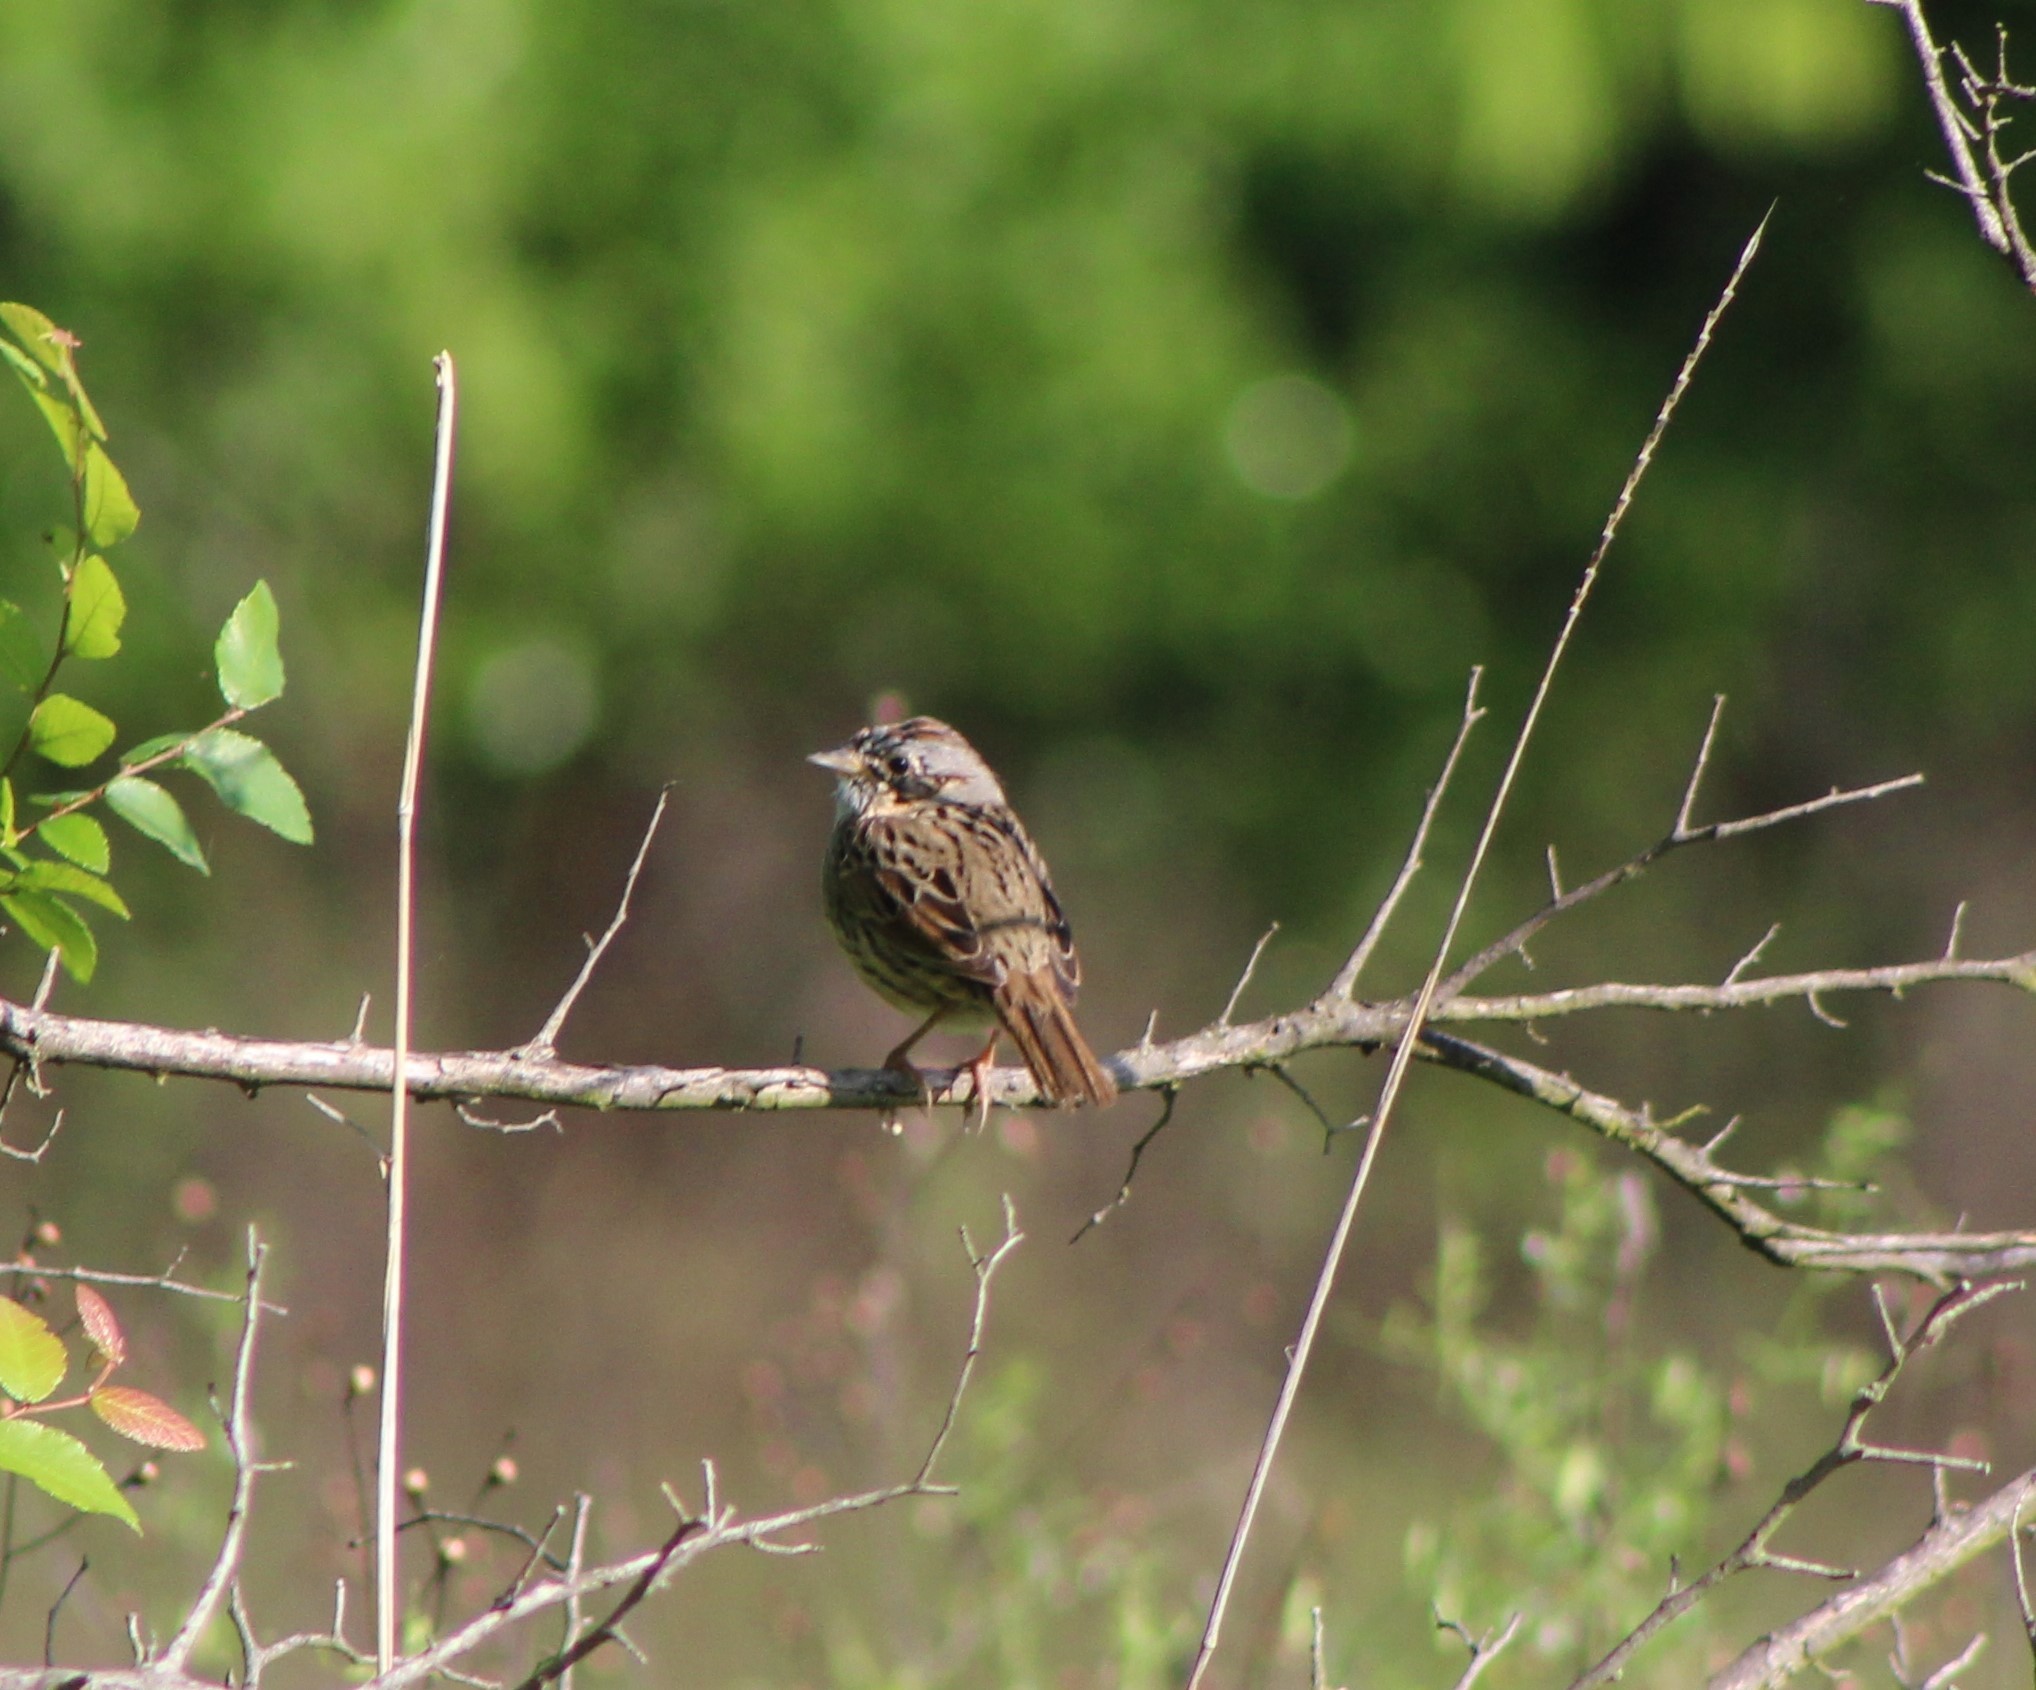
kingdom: Animalia
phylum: Chordata
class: Aves
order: Passeriformes
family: Passerellidae
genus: Melospiza
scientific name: Melospiza lincolnii
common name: Lincoln's sparrow
